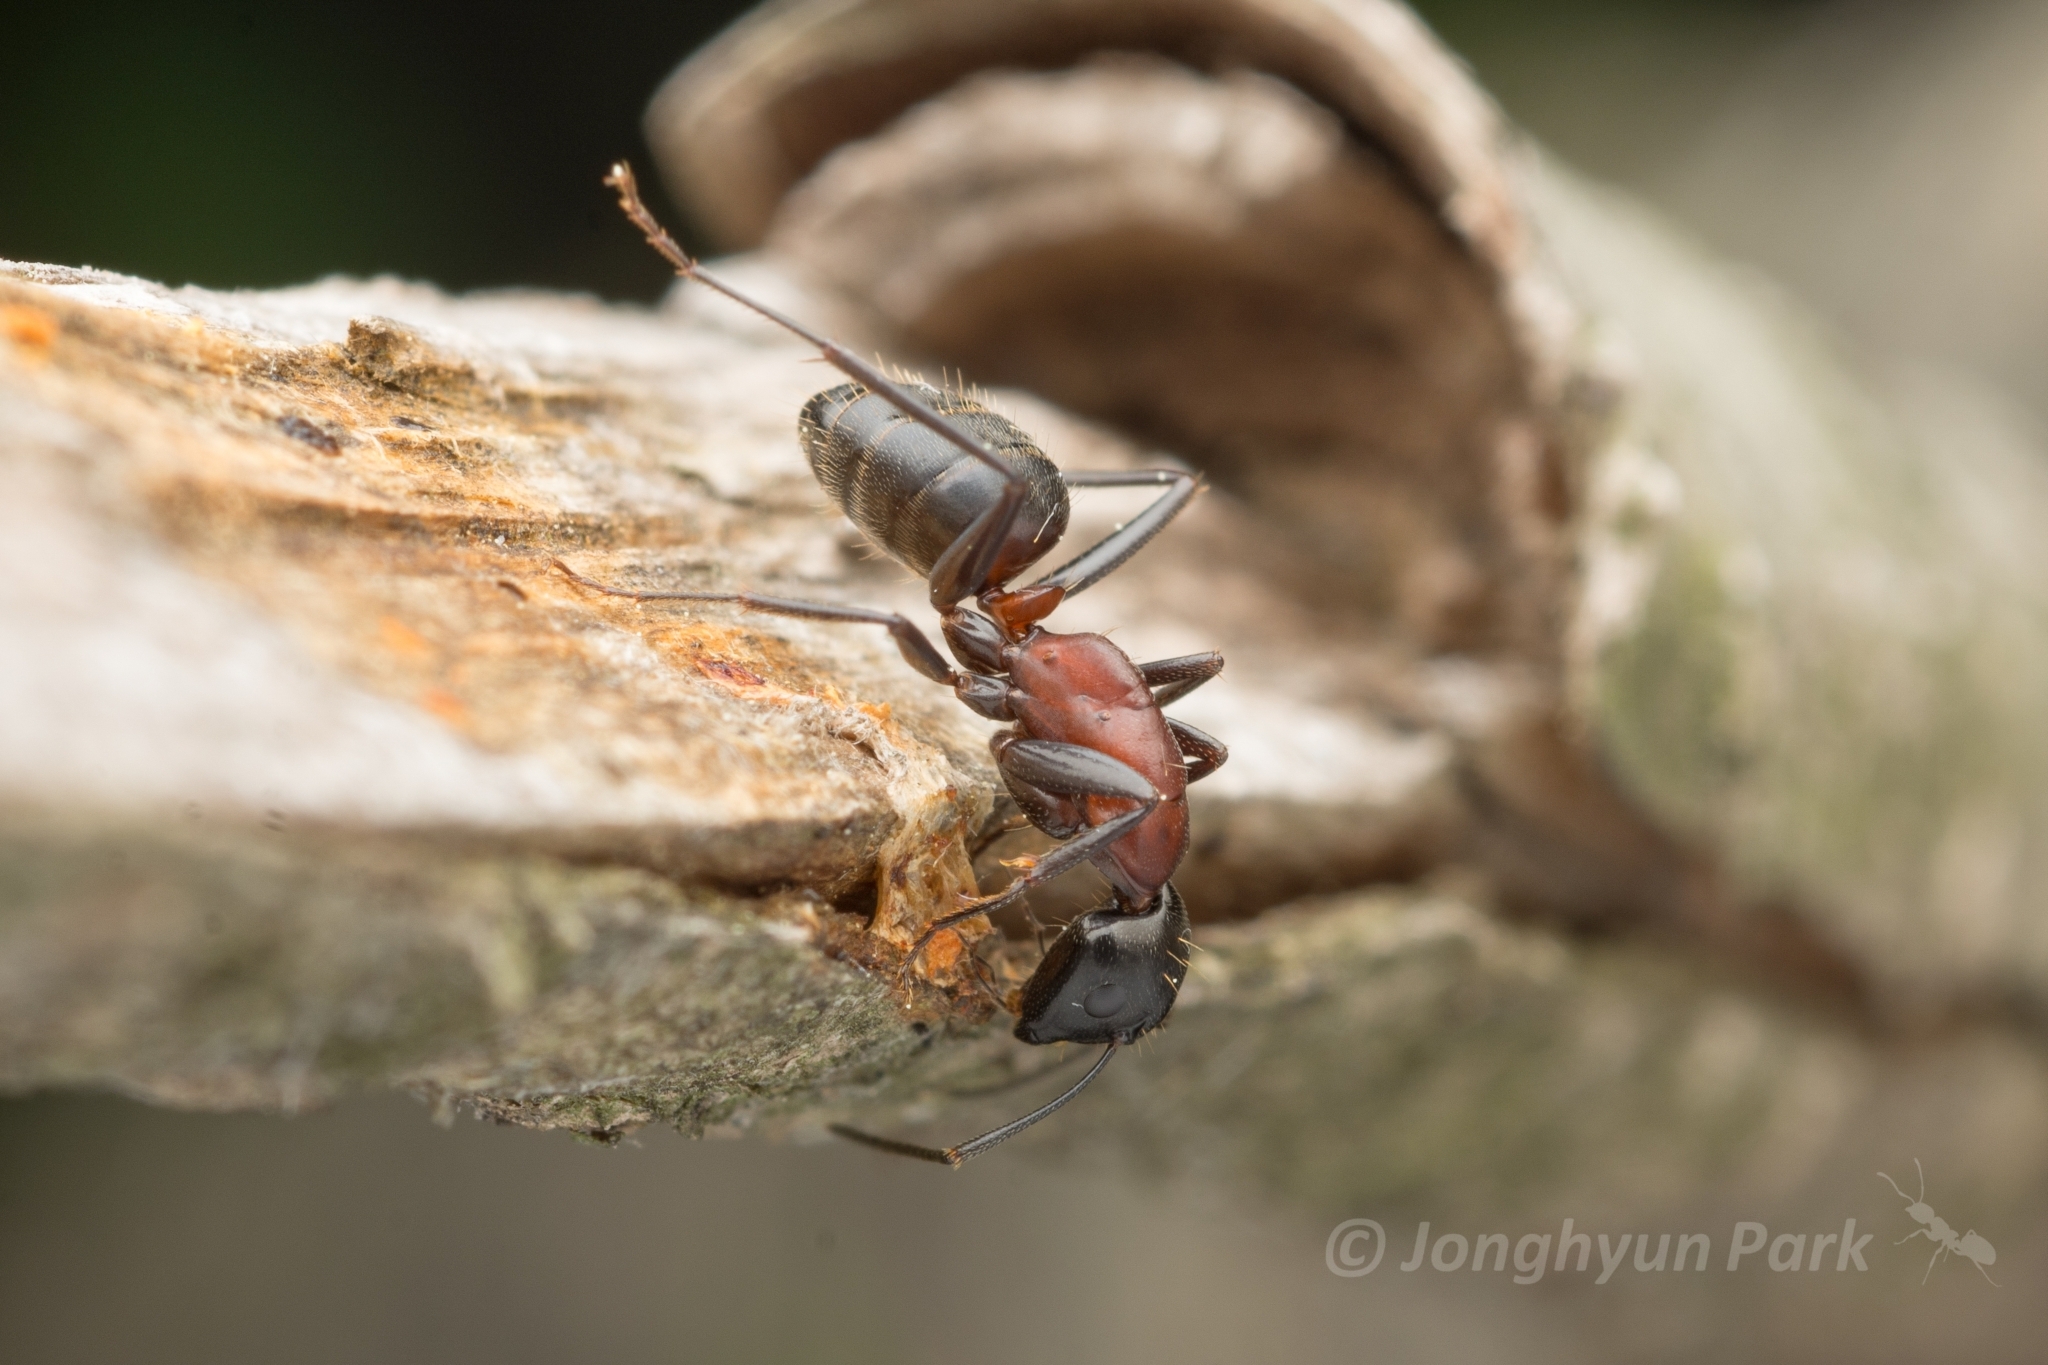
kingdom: Animalia
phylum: Arthropoda
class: Insecta
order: Hymenoptera
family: Formicidae
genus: Camponotus
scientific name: Camponotus atrox
